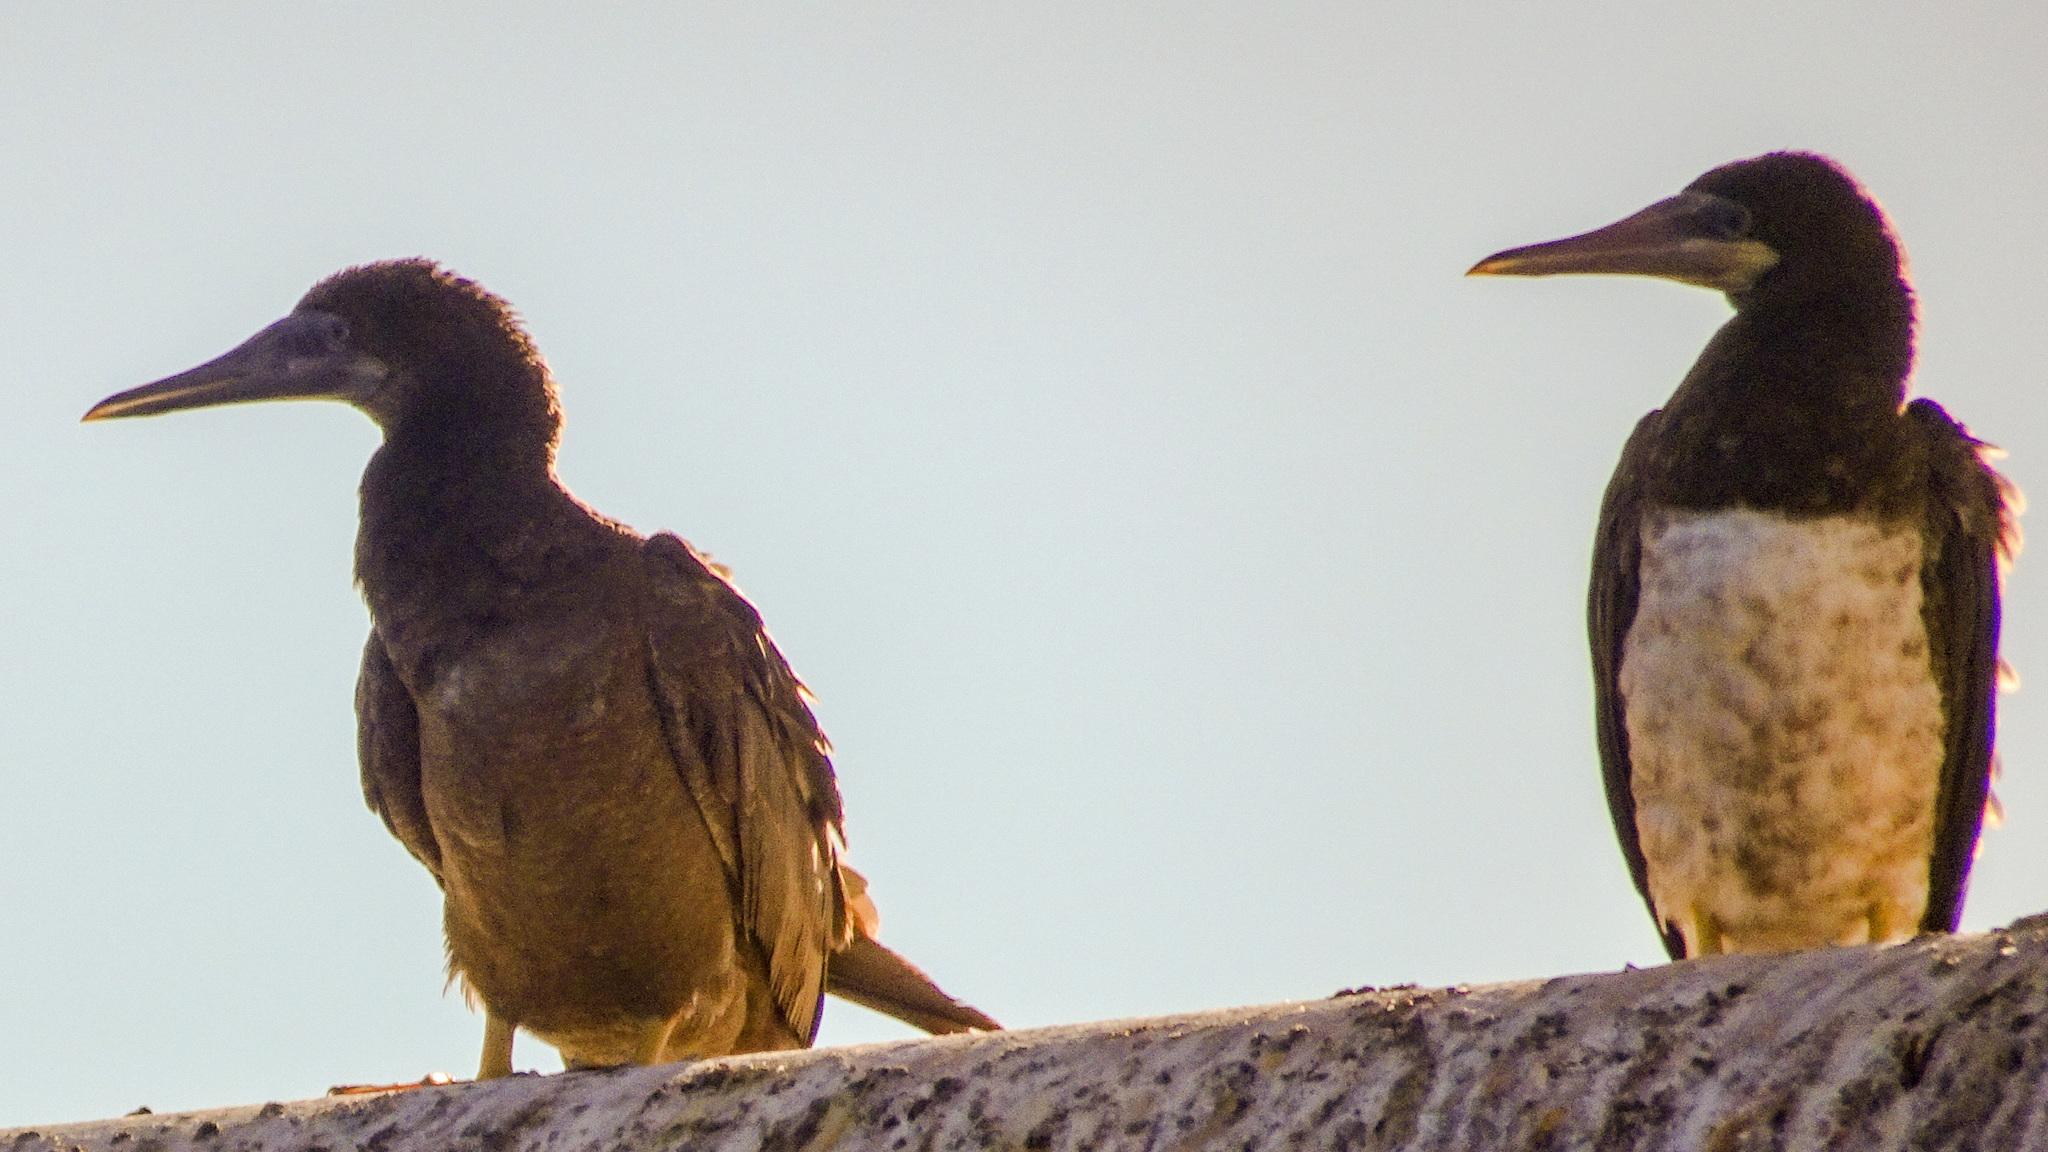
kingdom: Animalia
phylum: Chordata
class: Aves
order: Suliformes
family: Sulidae
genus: Sula
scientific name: Sula leucogaster
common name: Brown booby
